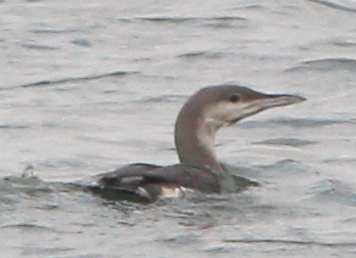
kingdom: Animalia
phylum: Chordata
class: Aves
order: Gaviiformes
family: Gaviidae
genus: Gavia
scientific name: Gavia arctica
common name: Black-throated loon
